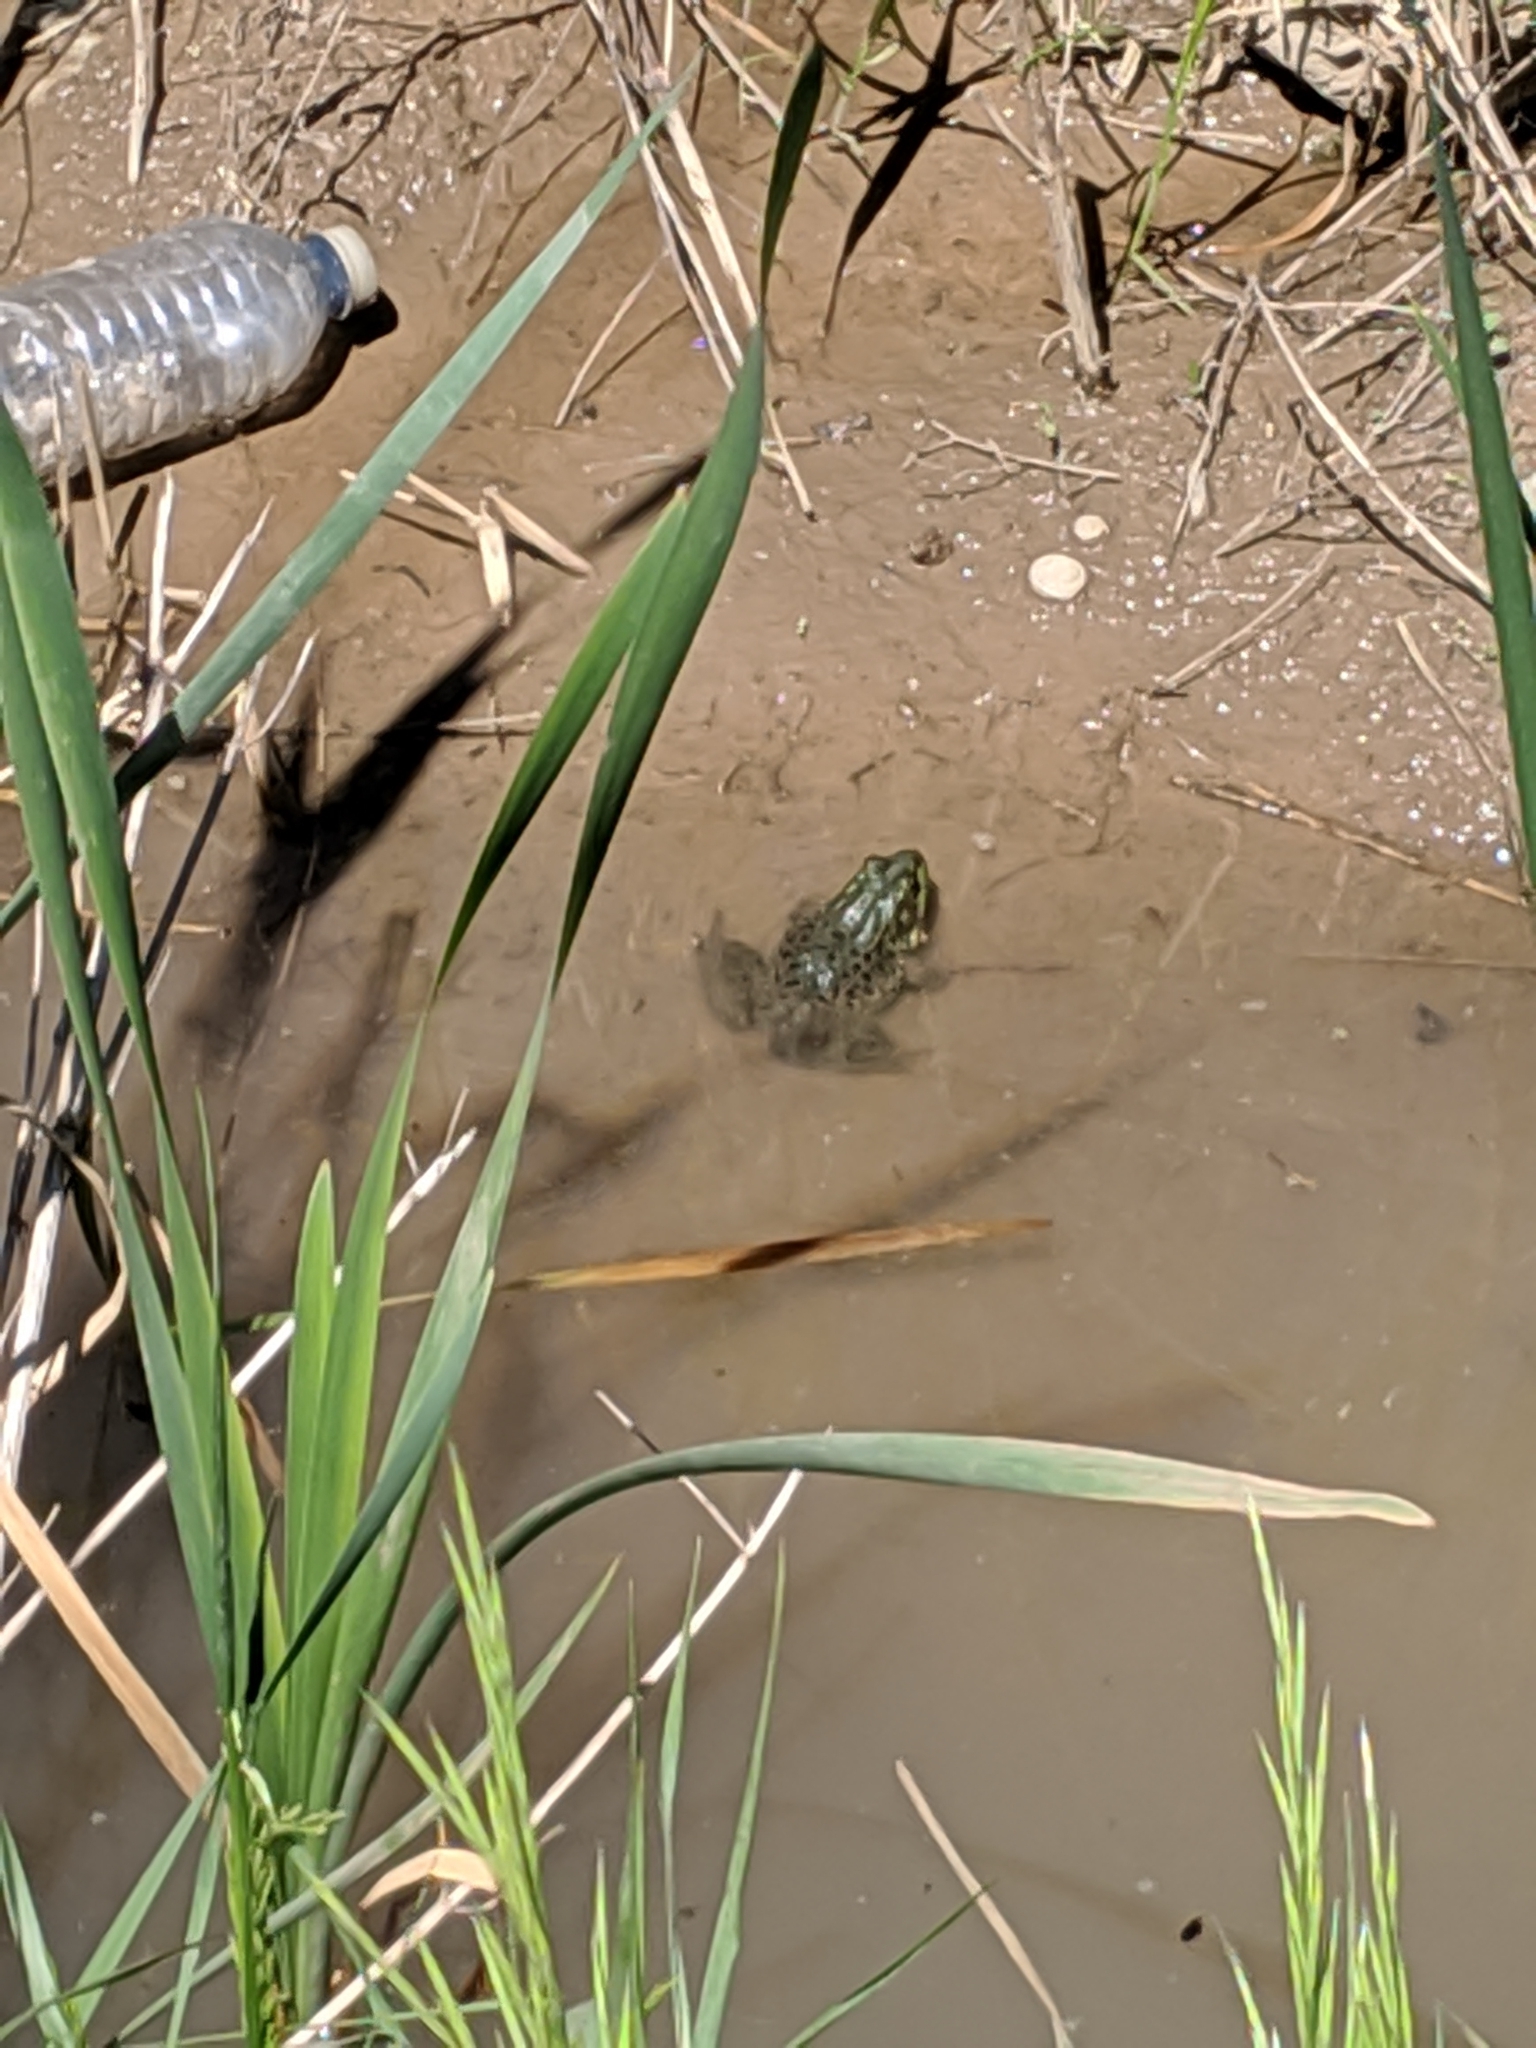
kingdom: Animalia
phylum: Chordata
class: Amphibia
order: Anura
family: Ranidae
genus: Lithobates
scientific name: Lithobates clamitans
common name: Green frog
